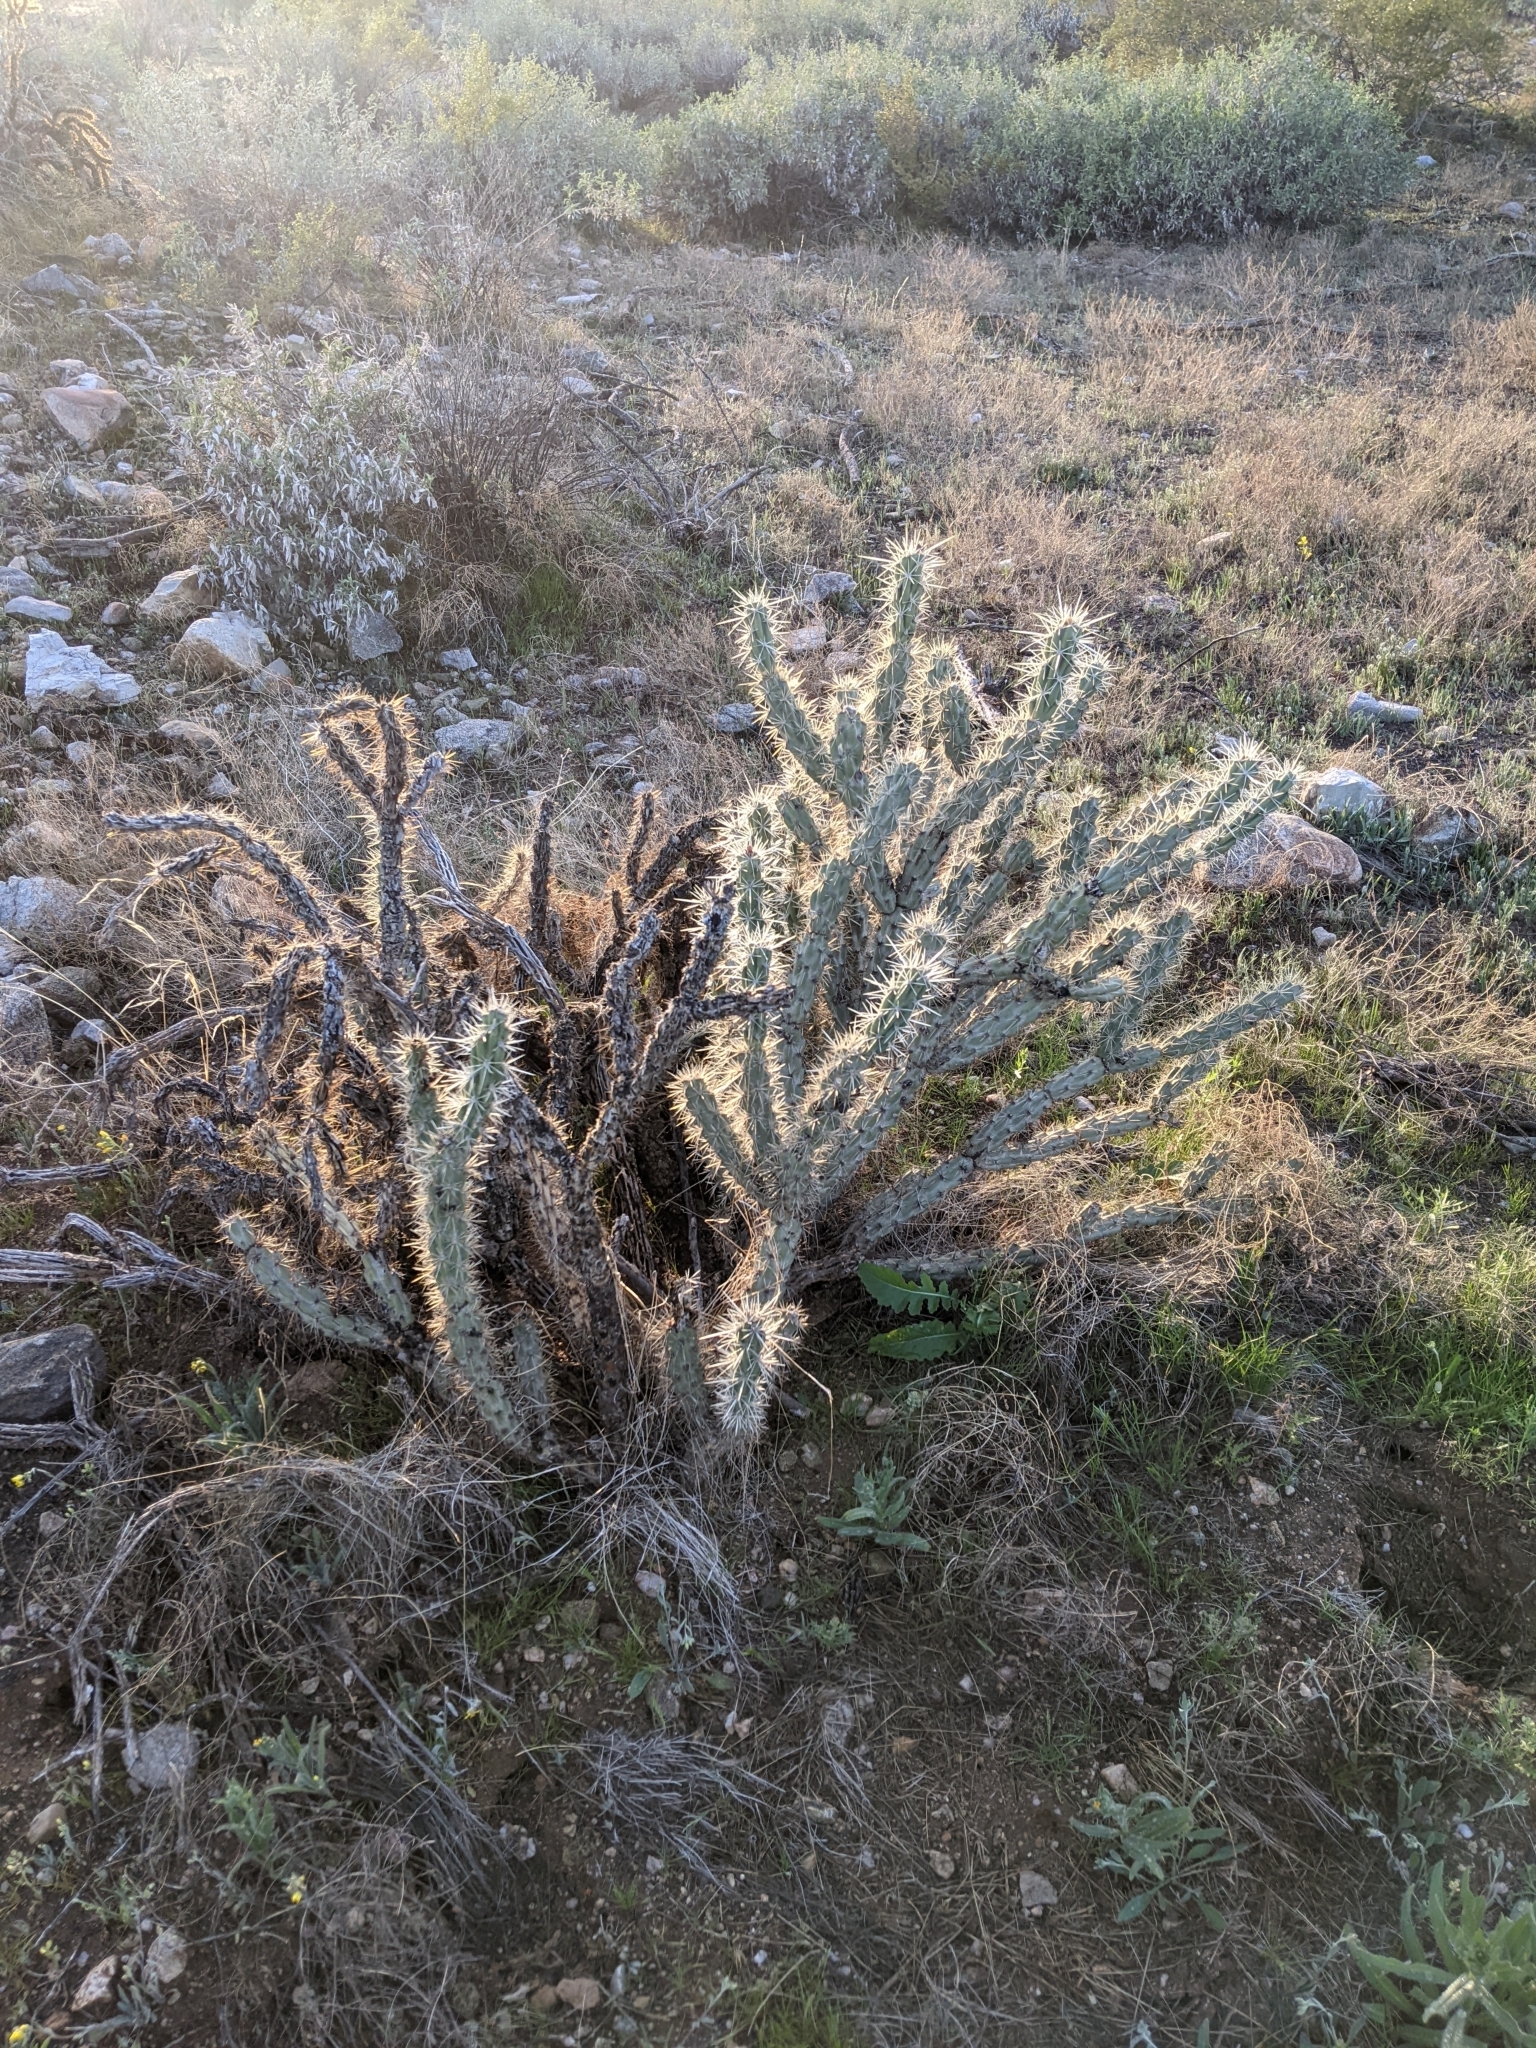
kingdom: Plantae
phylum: Tracheophyta
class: Magnoliopsida
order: Caryophyllales
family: Cactaceae
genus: Cylindropuntia
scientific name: Cylindropuntia acanthocarpa
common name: Buckhorn cholla
